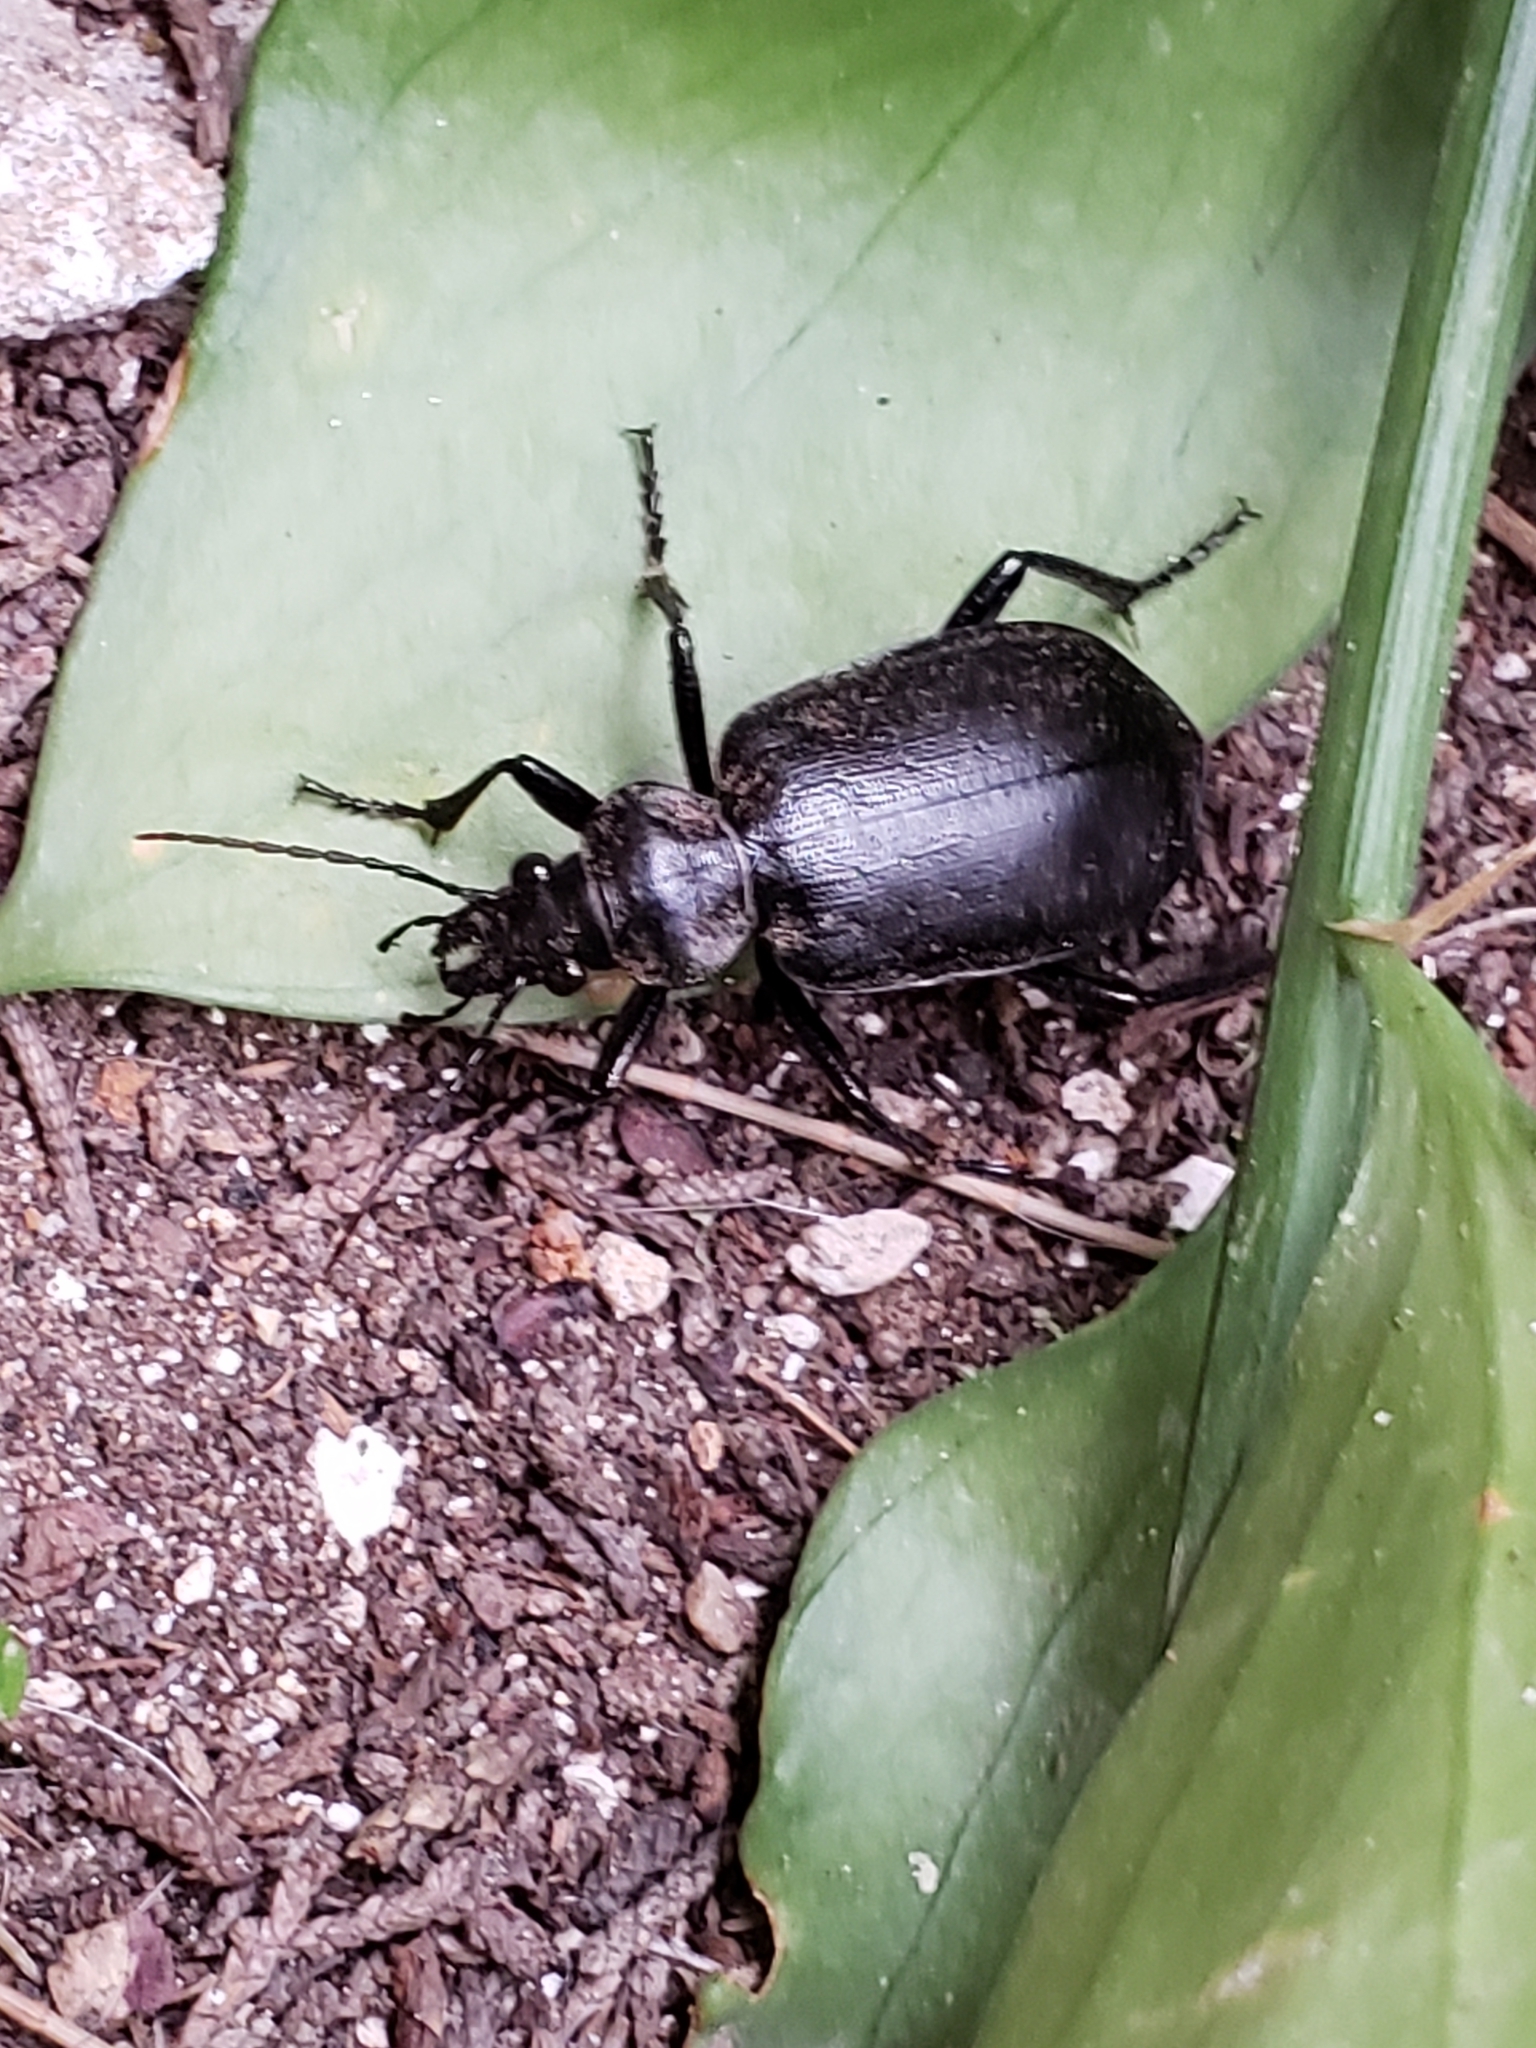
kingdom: Animalia
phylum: Arthropoda
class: Insecta
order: Coleoptera
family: Carabidae
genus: Calosoma
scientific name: Calosoma olivieri
